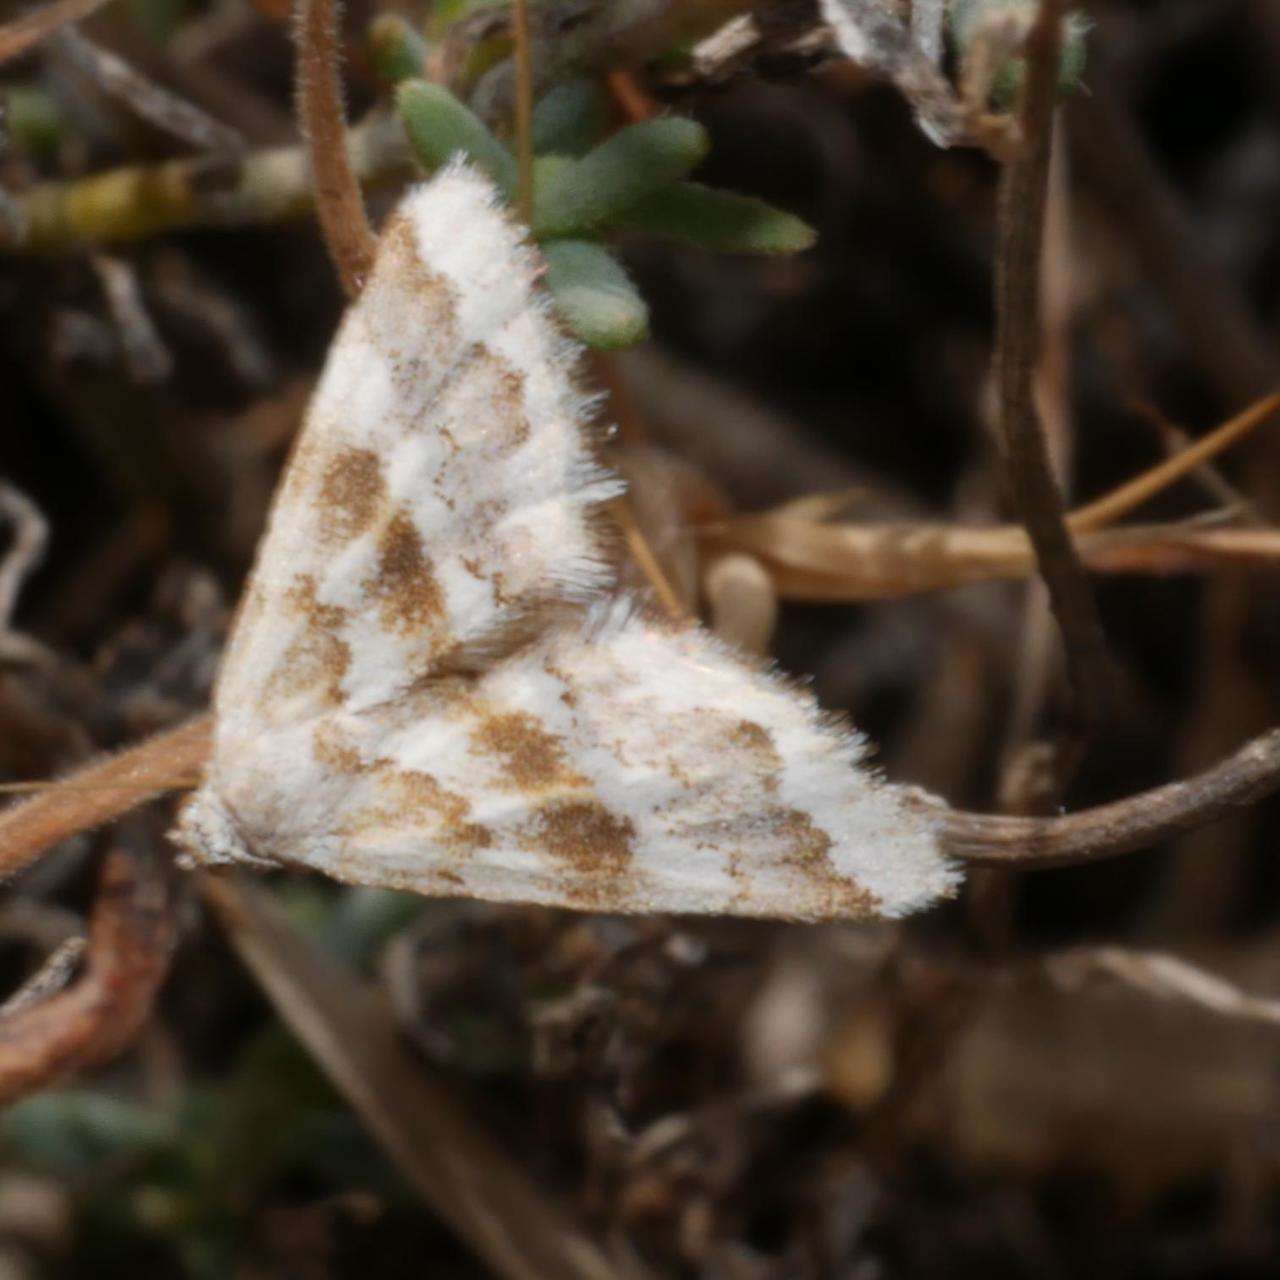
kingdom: Animalia
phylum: Arthropoda
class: Insecta
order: Lepidoptera
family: Geometridae
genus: Anomocentris
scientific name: Anomocentris trissodesma
